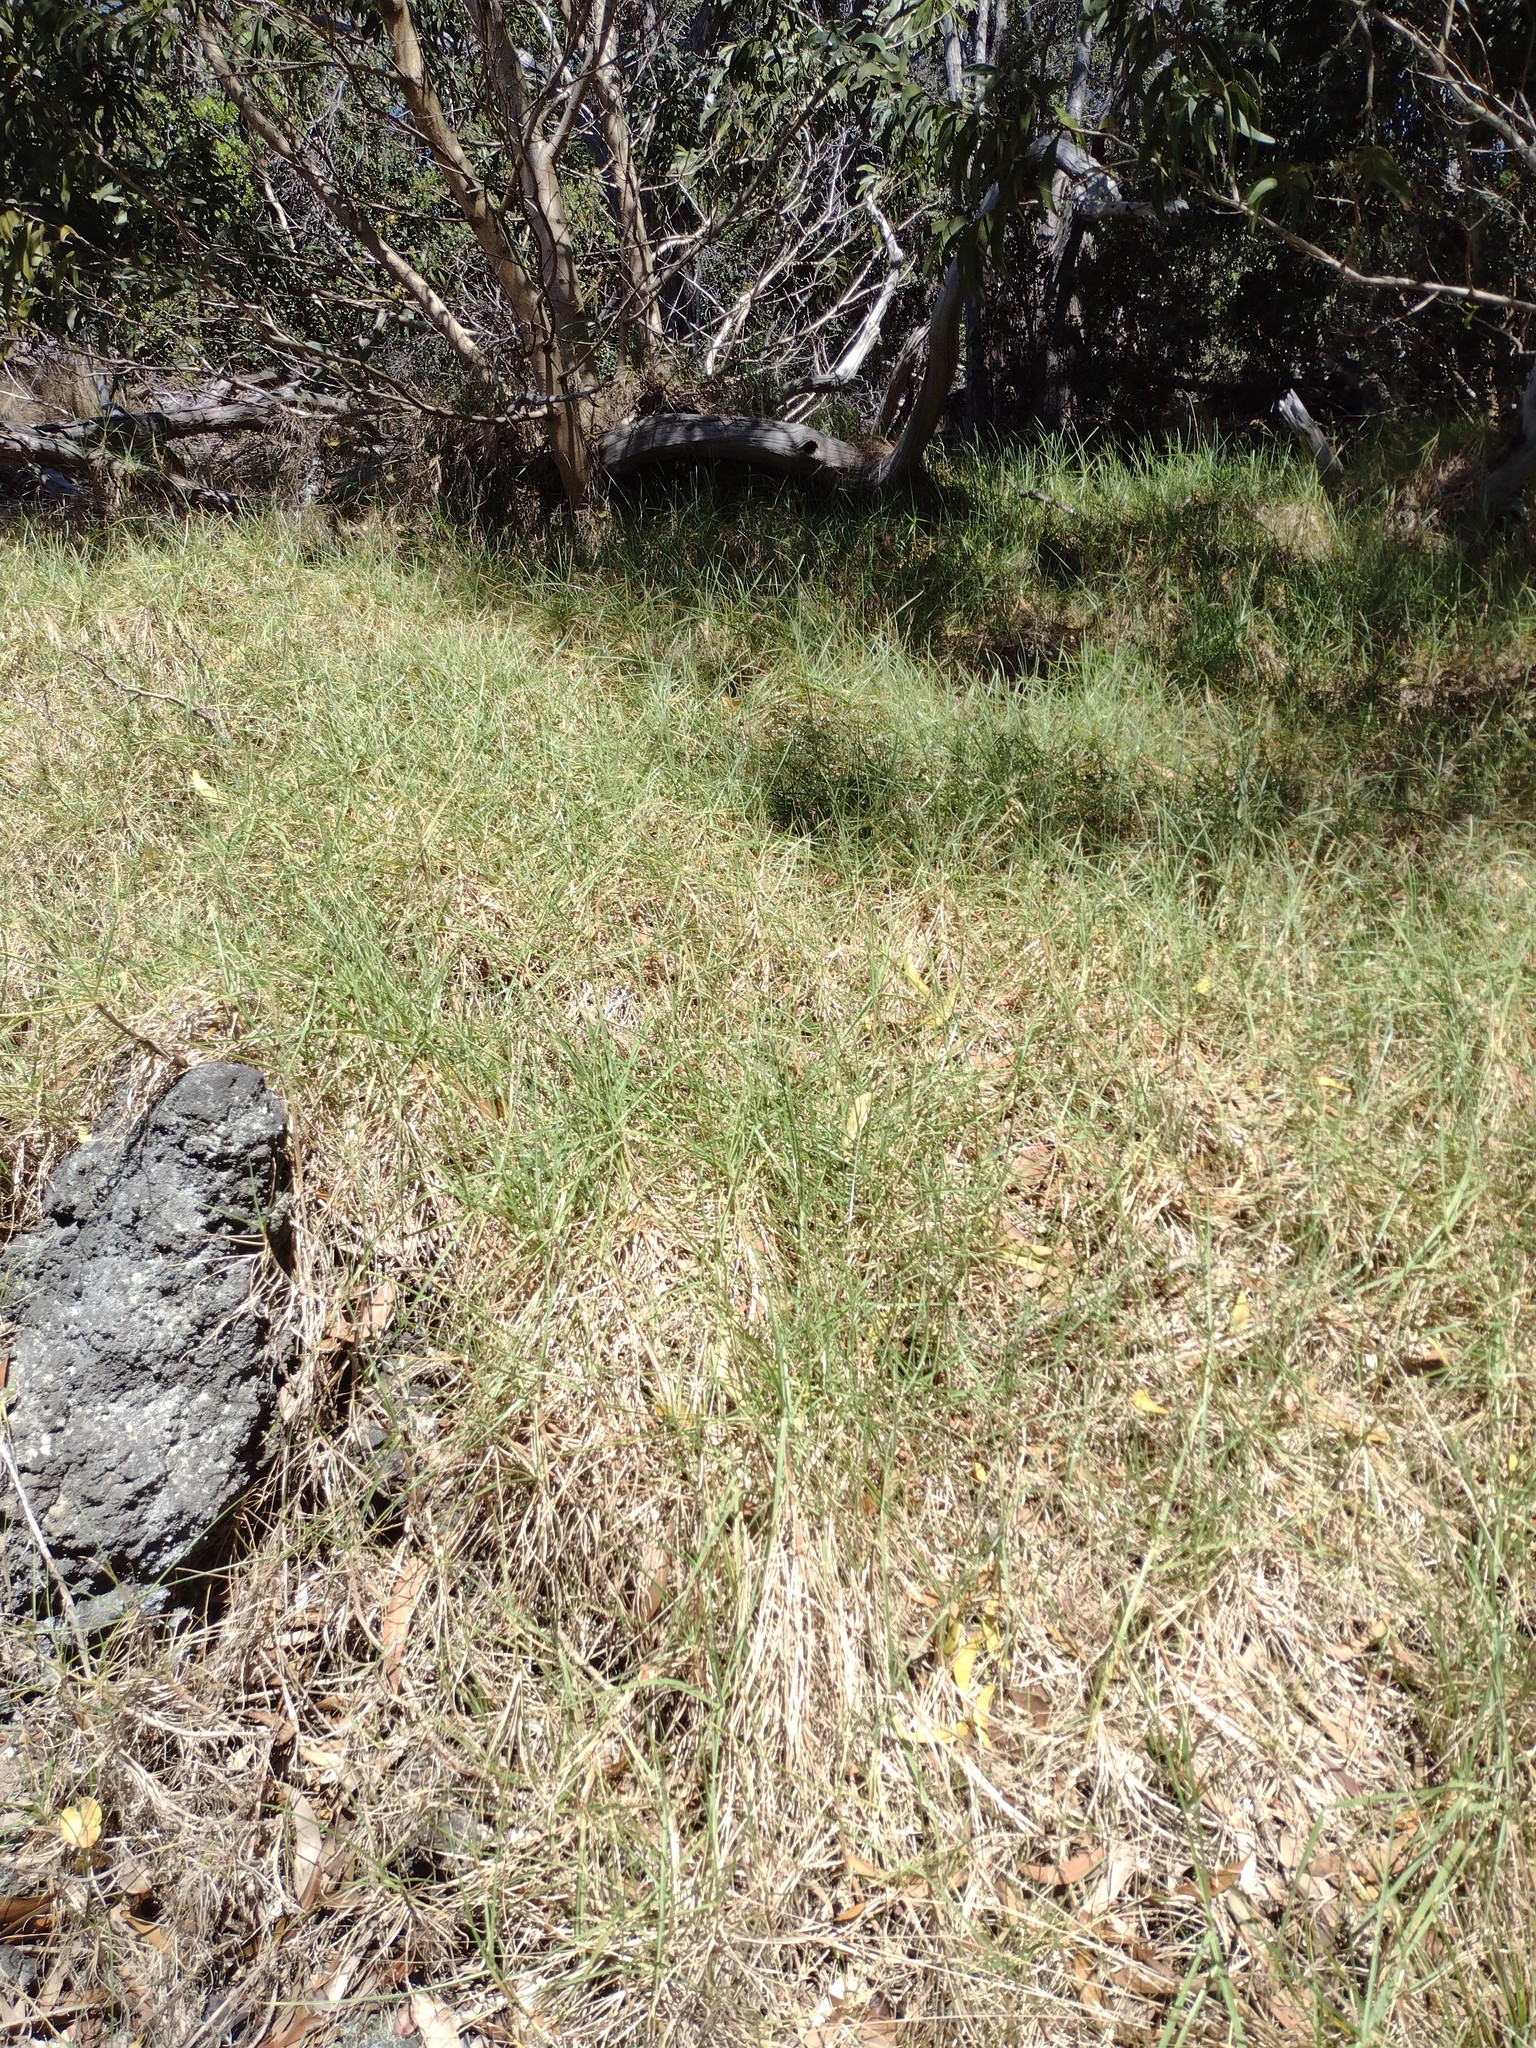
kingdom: Plantae
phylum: Tracheophyta
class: Liliopsida
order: Poales
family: Poaceae
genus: Cenchrus
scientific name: Cenchrus clandestinus
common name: Kikuyugrass
